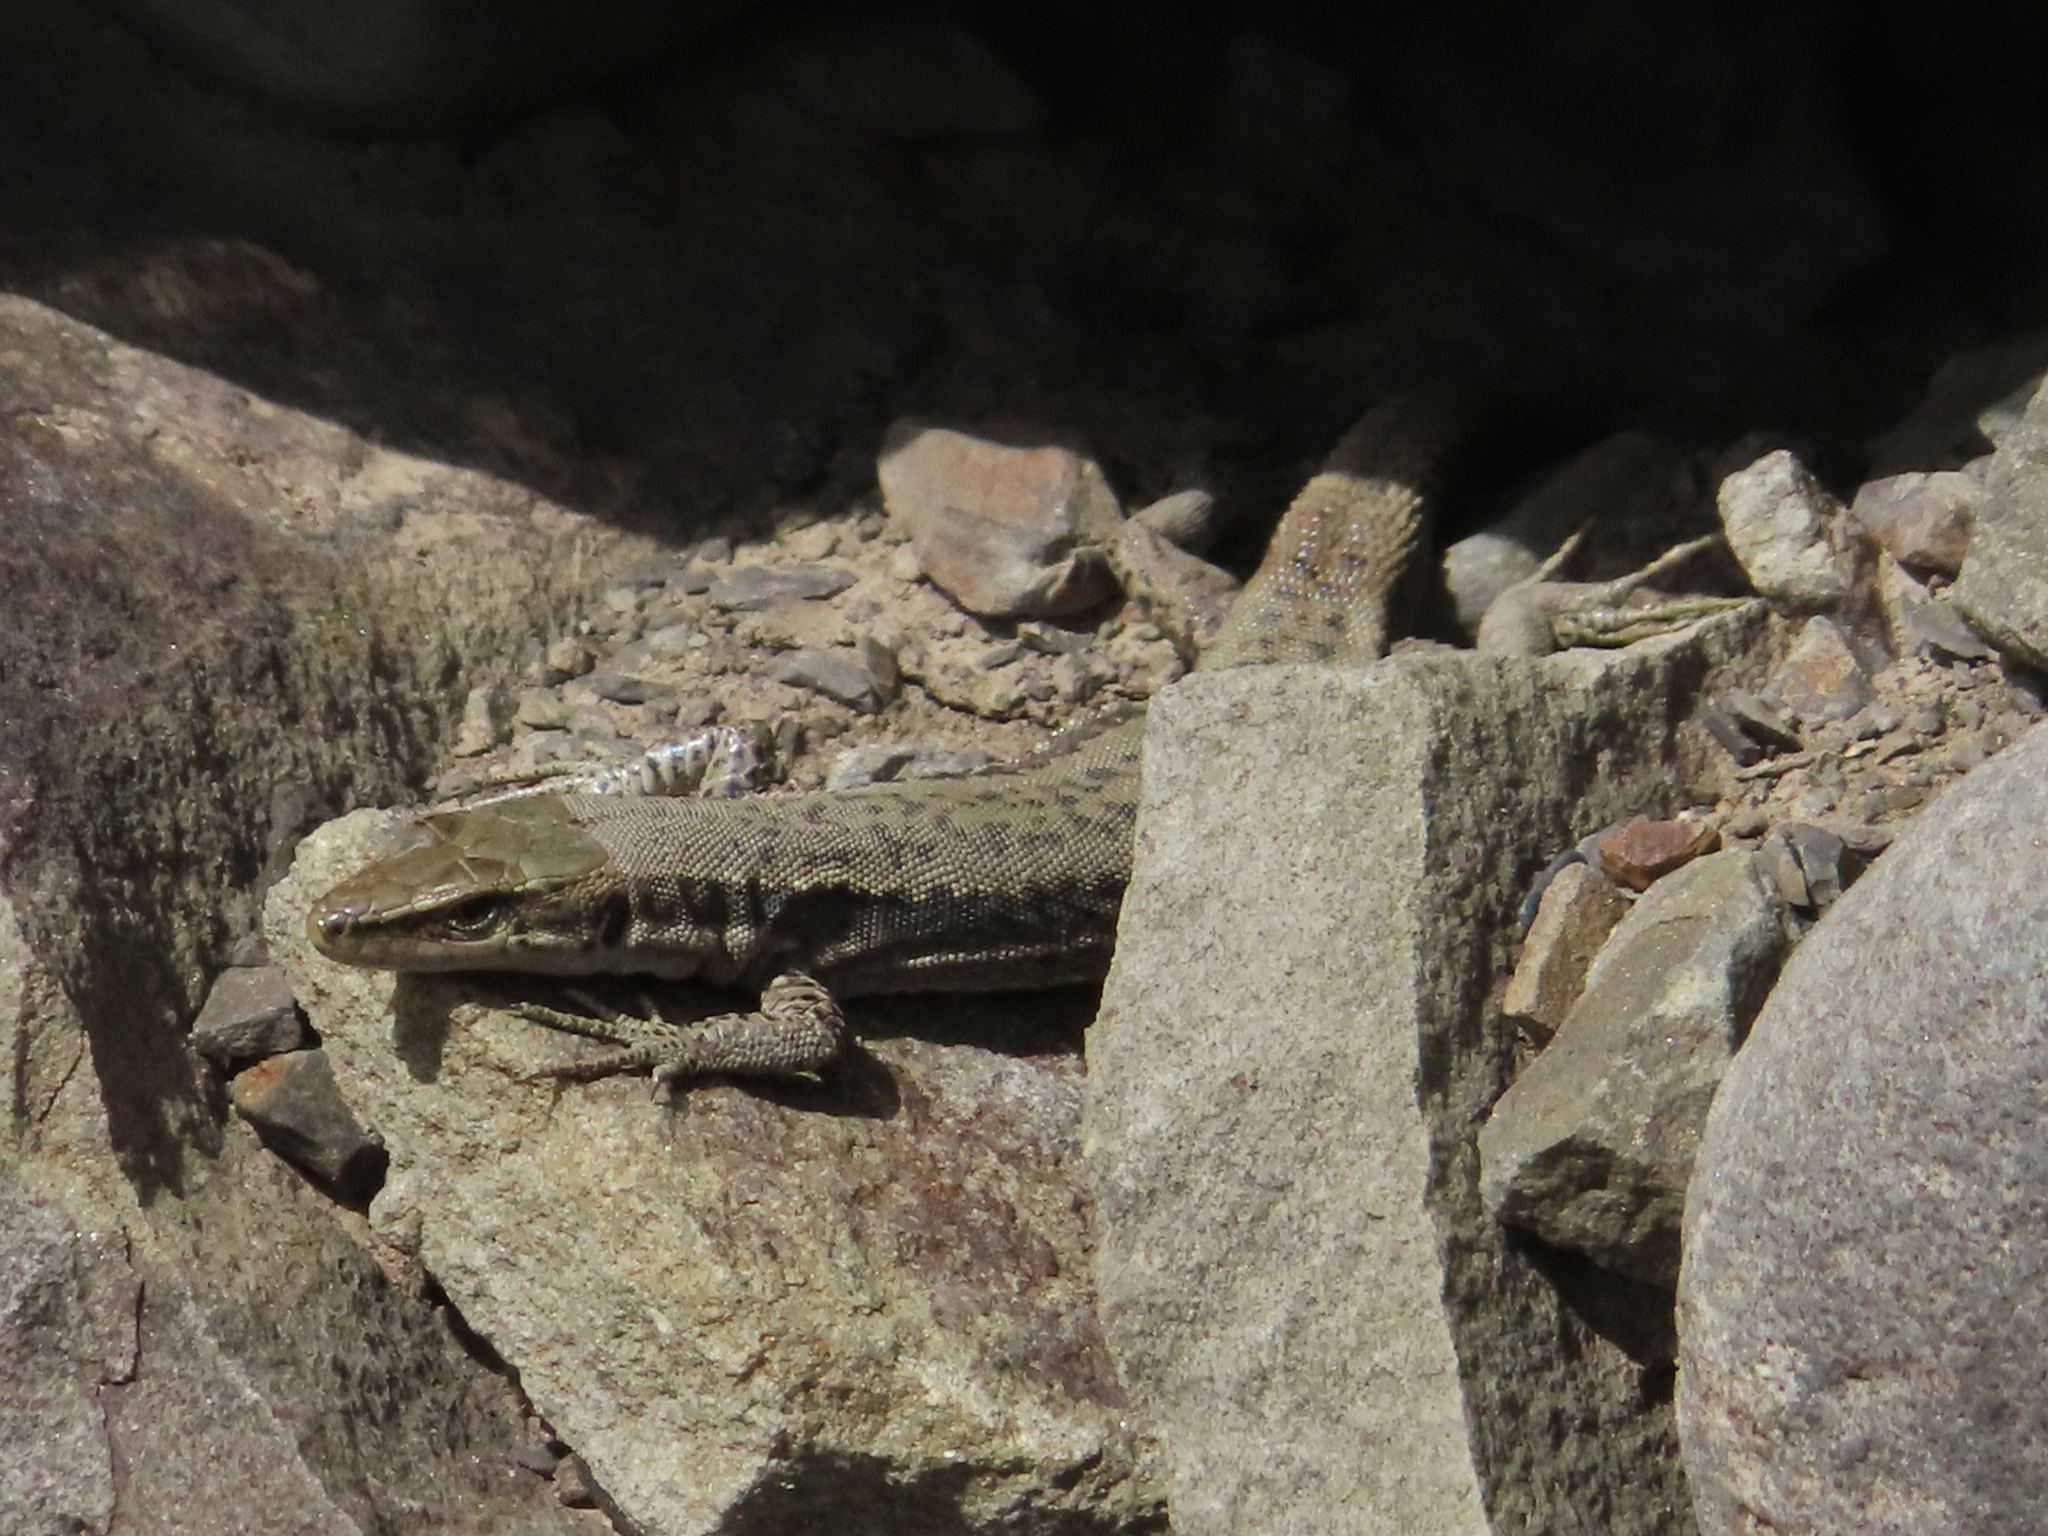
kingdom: Animalia
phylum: Chordata
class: Squamata
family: Lacertidae
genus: Darevskia
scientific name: Darevskia daghestanica
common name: Dagestan lizard
